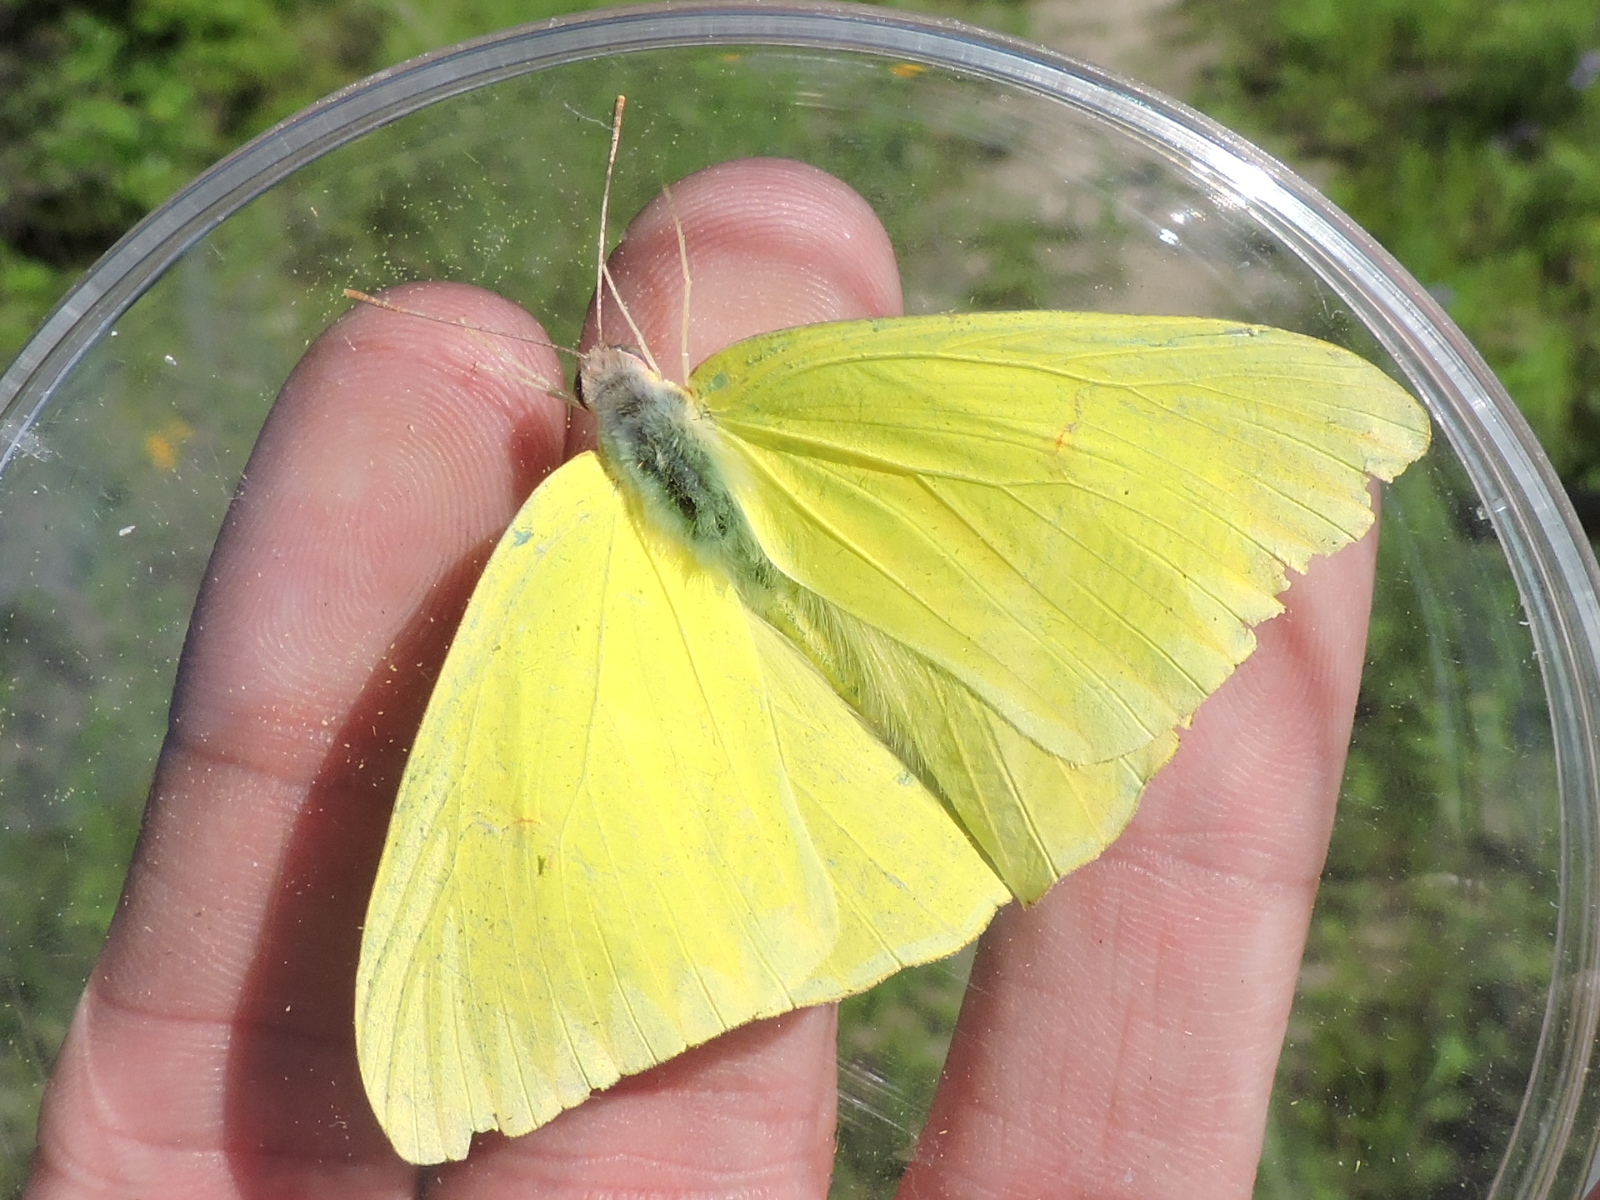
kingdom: Animalia
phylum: Arthropoda
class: Insecta
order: Lepidoptera
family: Pieridae
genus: Phoebis
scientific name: Phoebis sennae
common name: Cloudless sulphur
